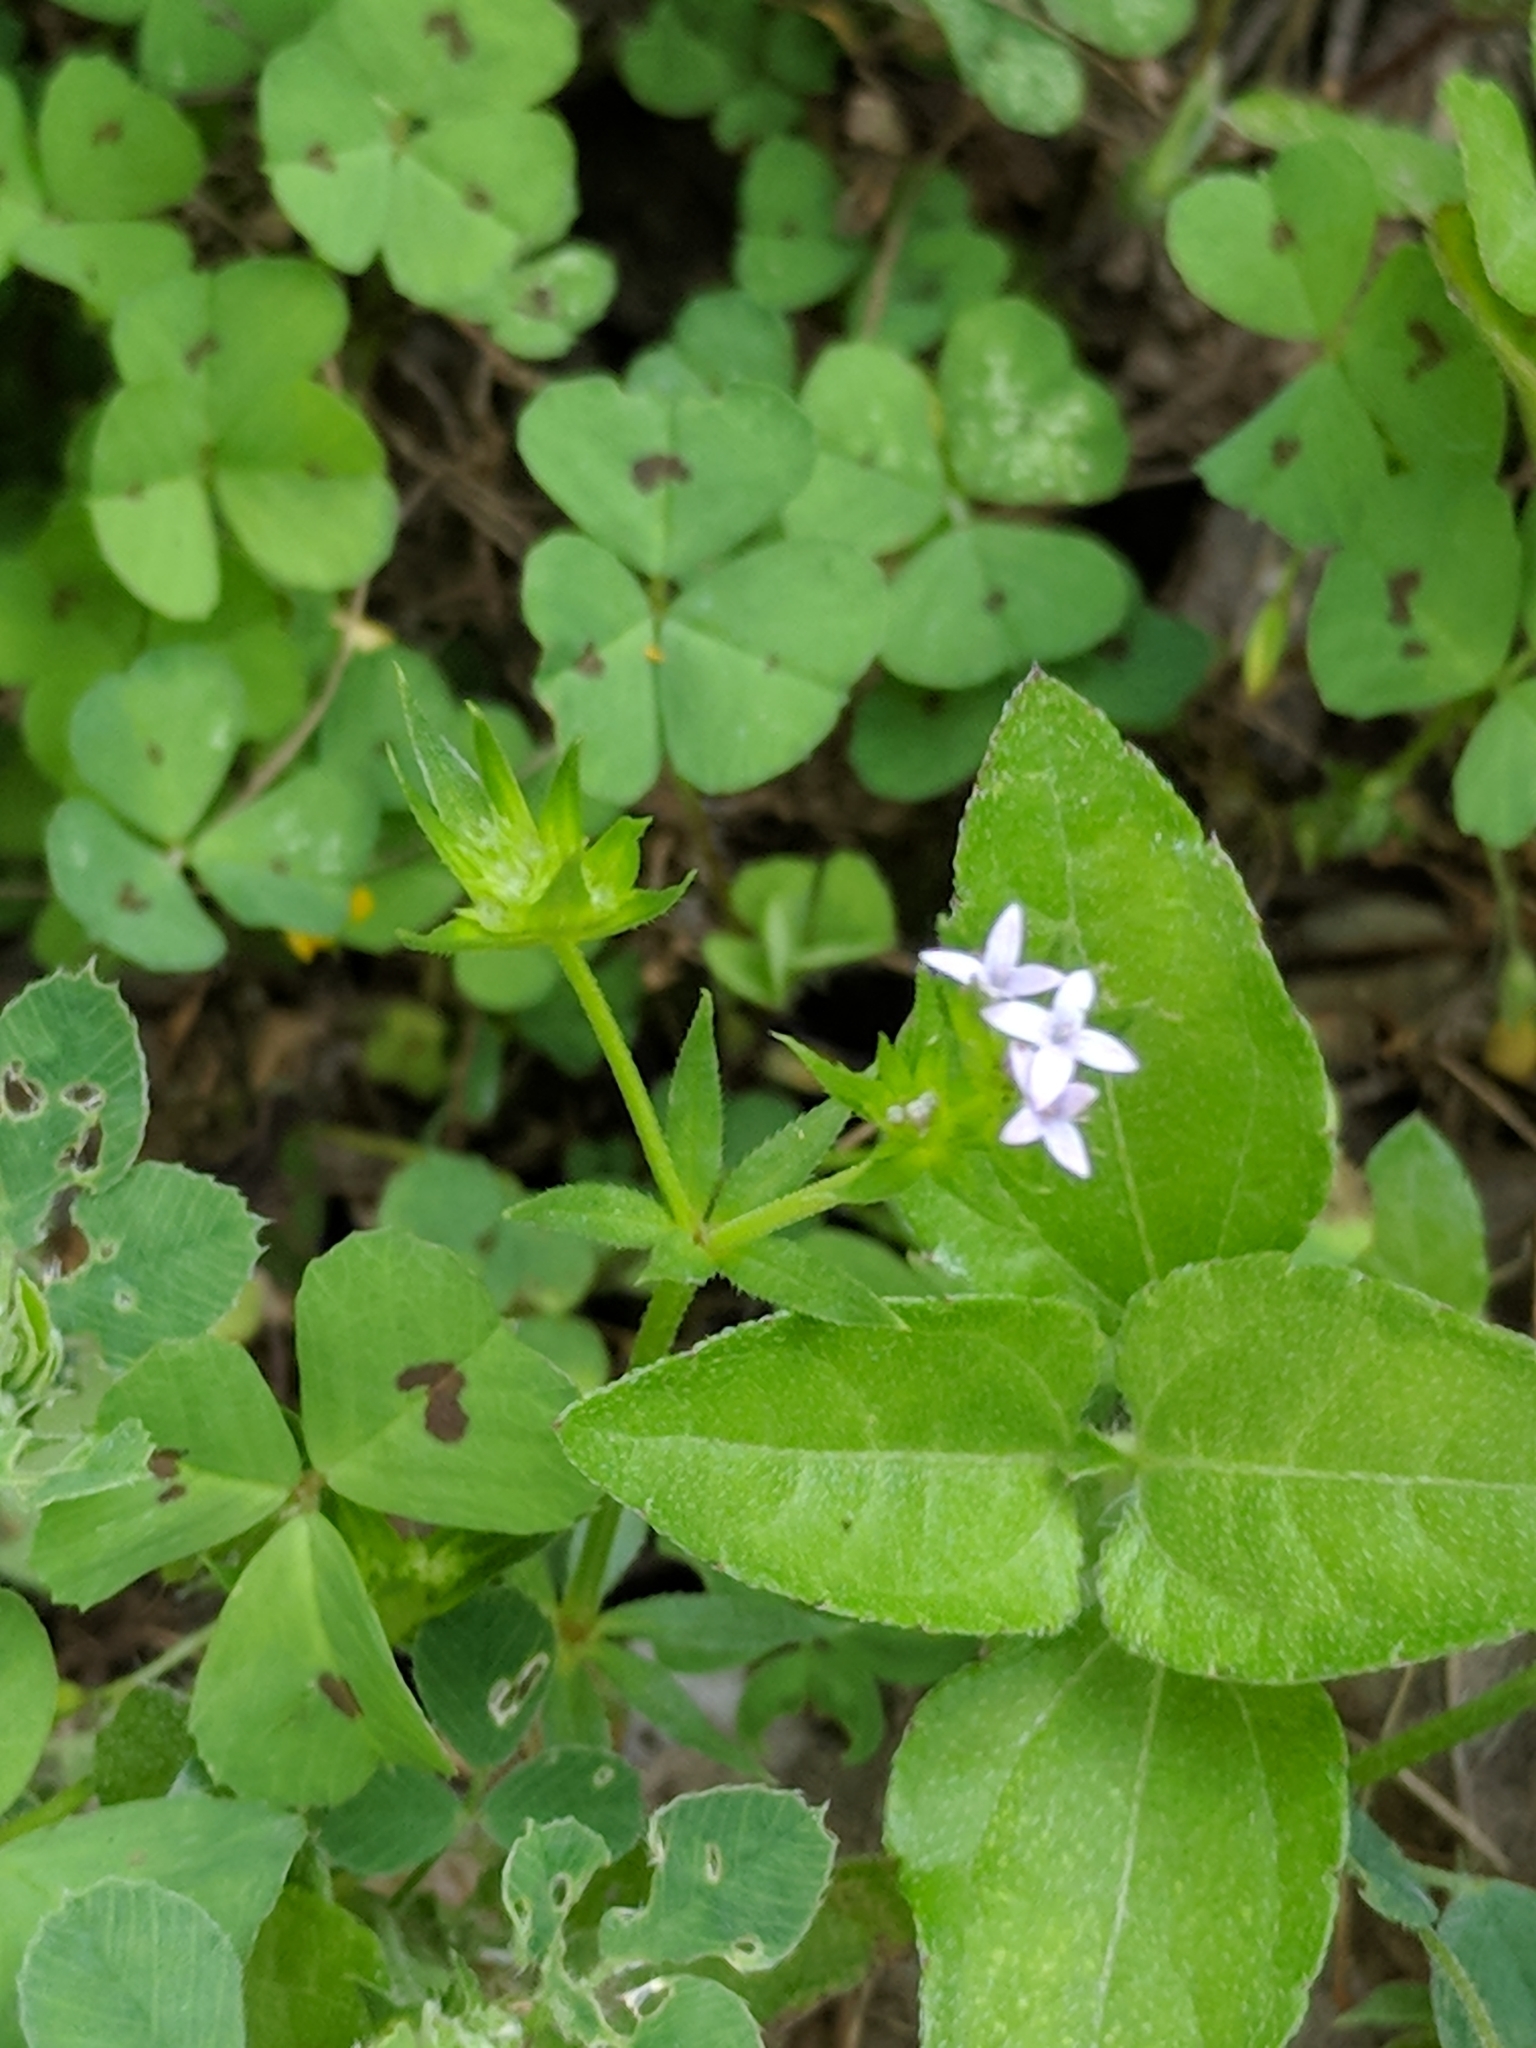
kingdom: Plantae
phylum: Tracheophyta
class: Magnoliopsida
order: Gentianales
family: Rubiaceae
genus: Sherardia
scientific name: Sherardia arvensis
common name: Field madder
